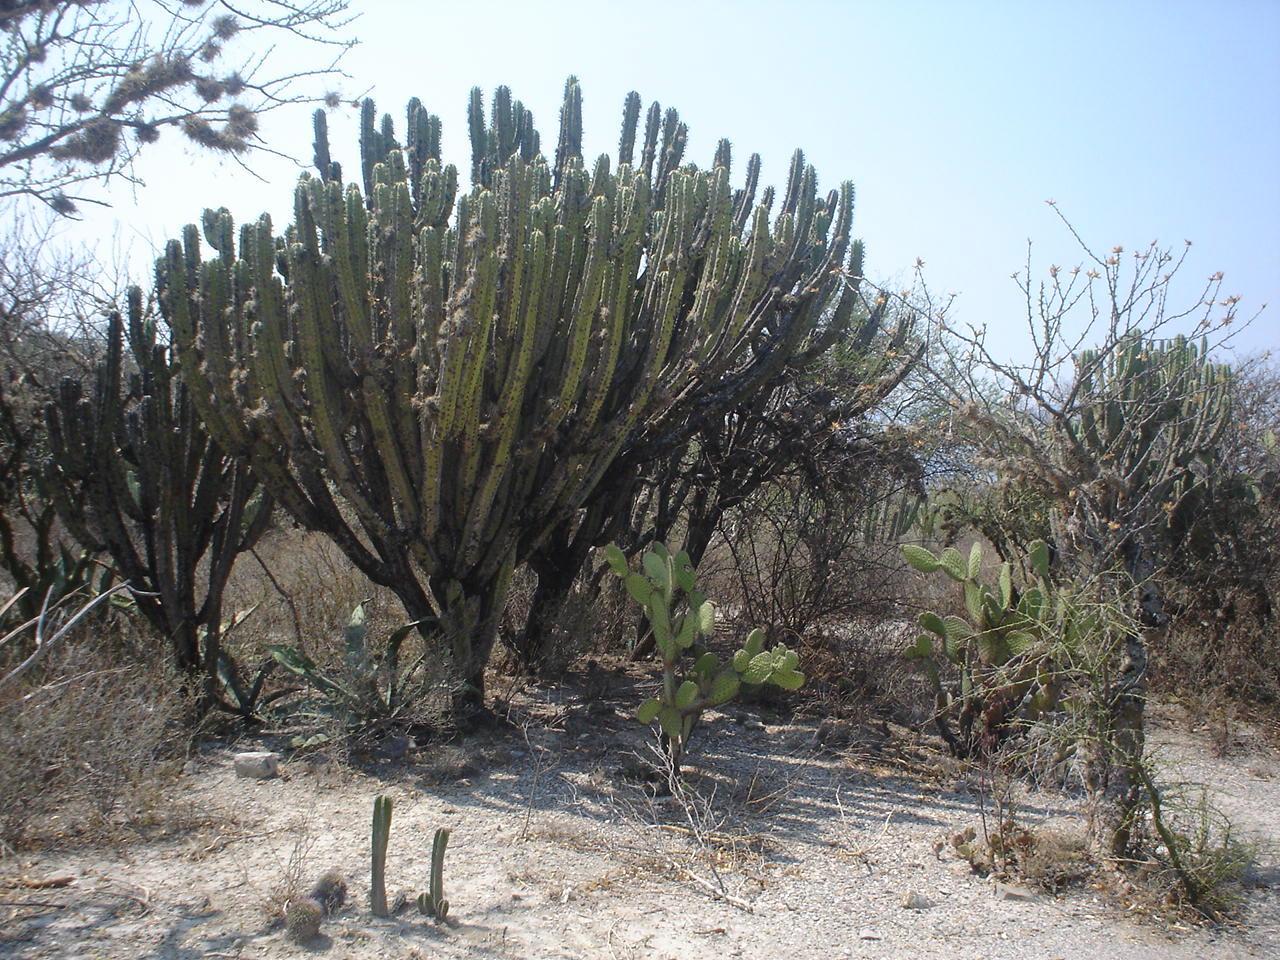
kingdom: Plantae
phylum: Tracheophyta
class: Magnoliopsida
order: Caryophyllales
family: Cactaceae
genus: Myrtillocactus
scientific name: Myrtillocactus geometrizans
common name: Bilberry cactus
